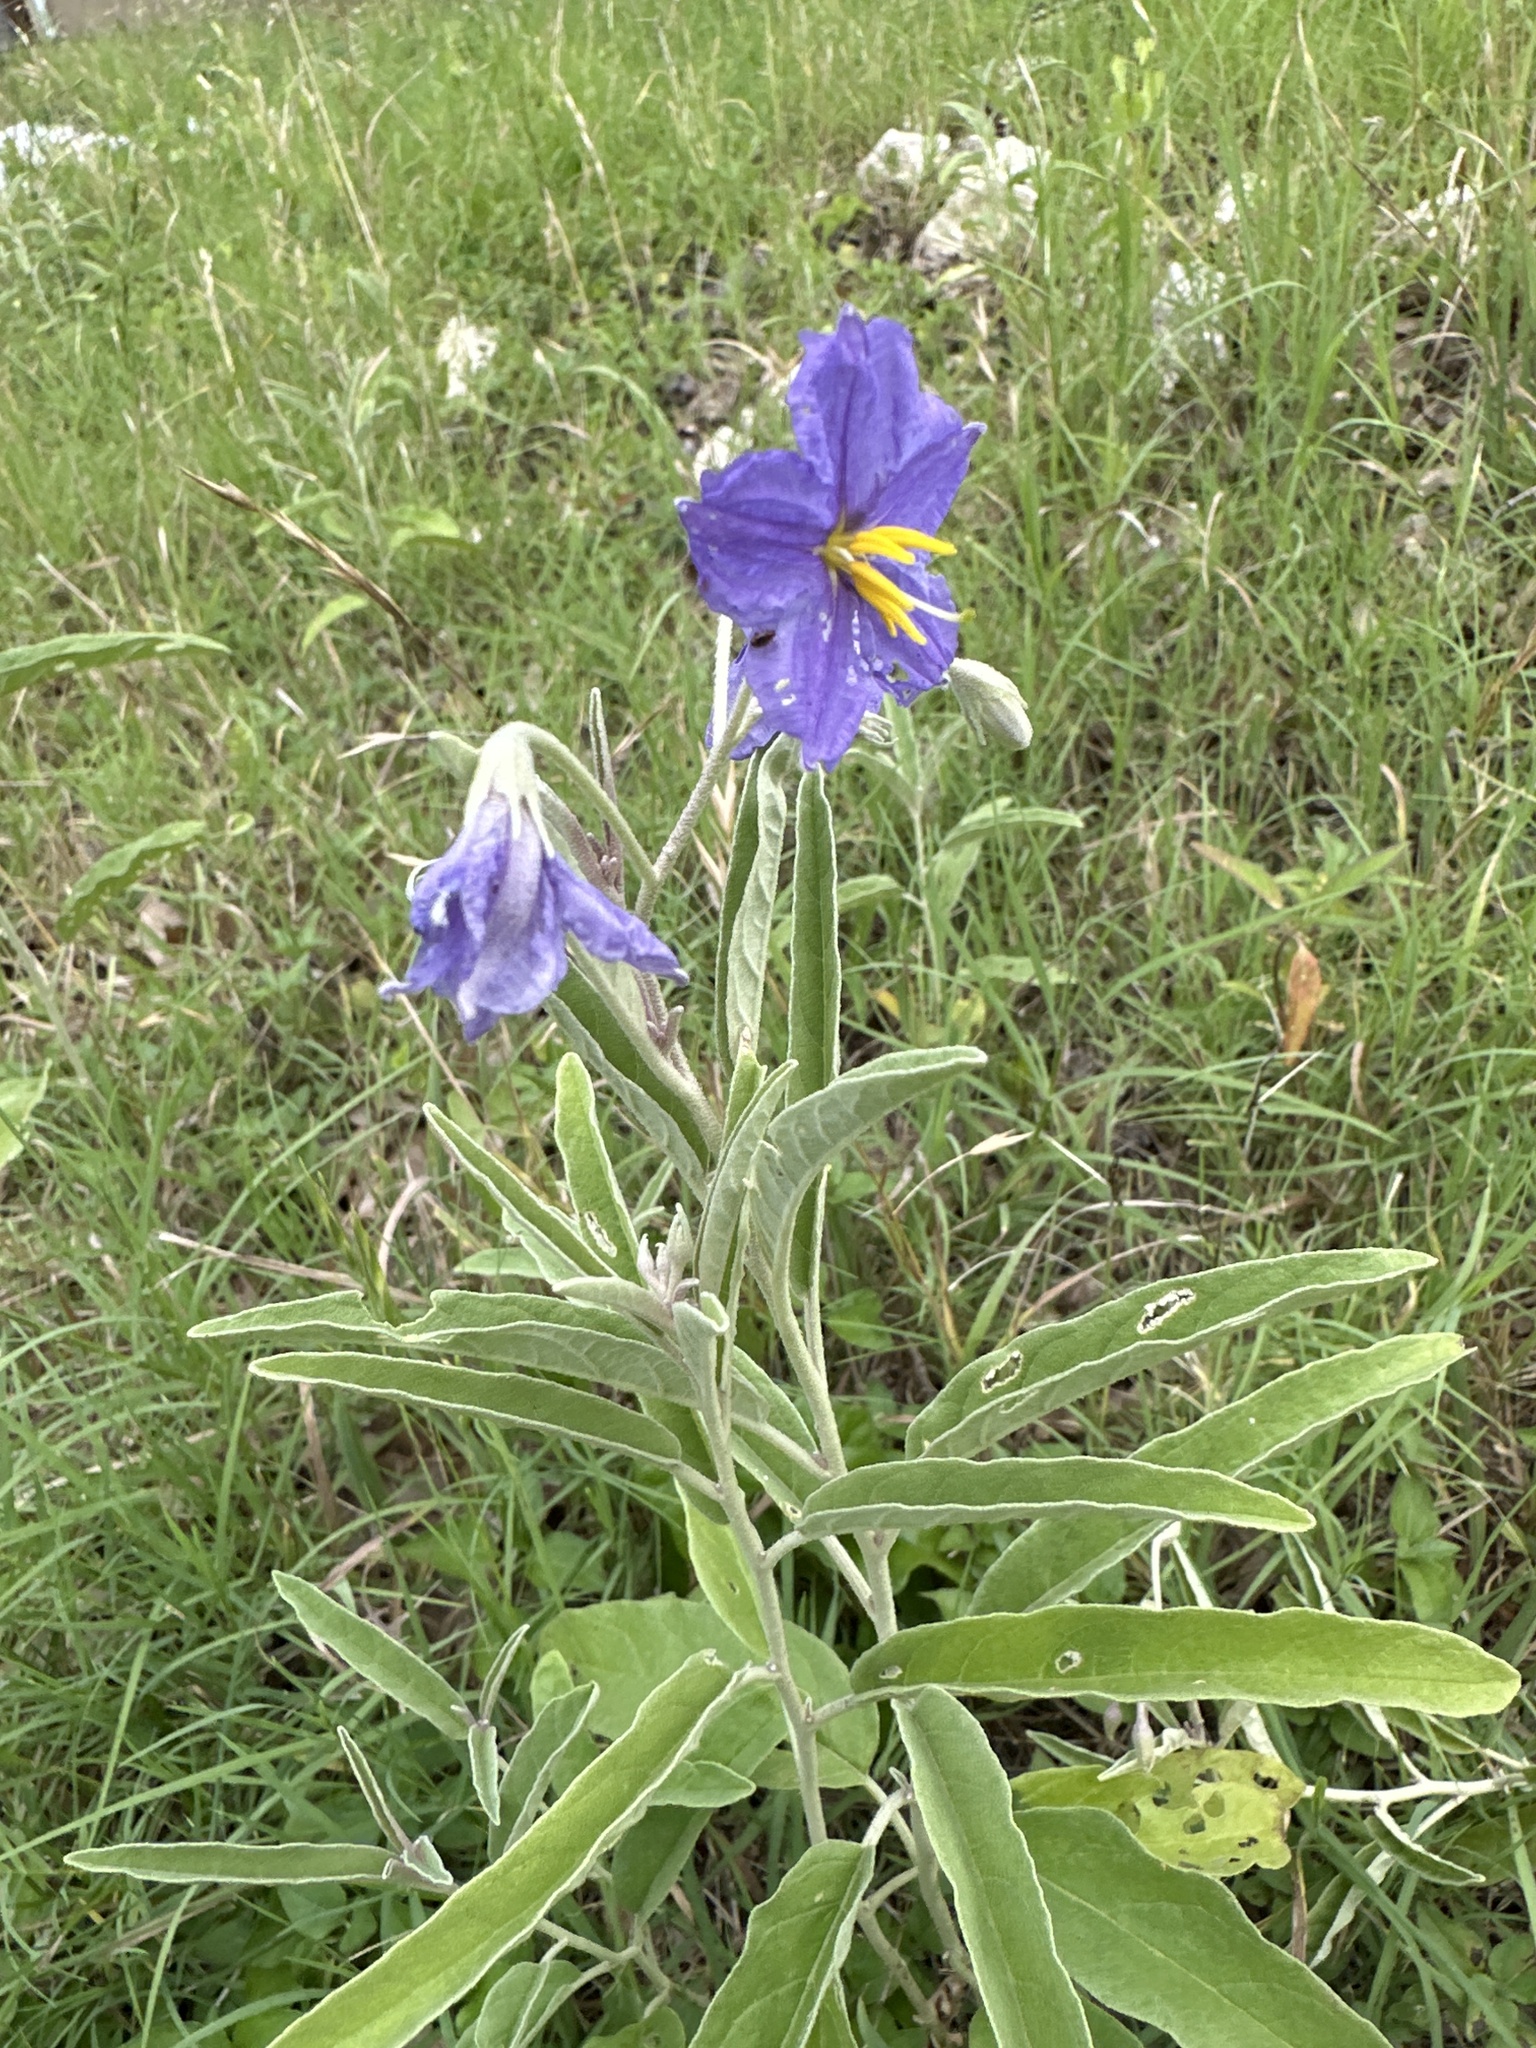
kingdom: Plantae
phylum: Tracheophyta
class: Magnoliopsida
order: Solanales
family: Solanaceae
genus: Solanum
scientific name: Solanum elaeagnifolium
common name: Silverleaf nightshade
